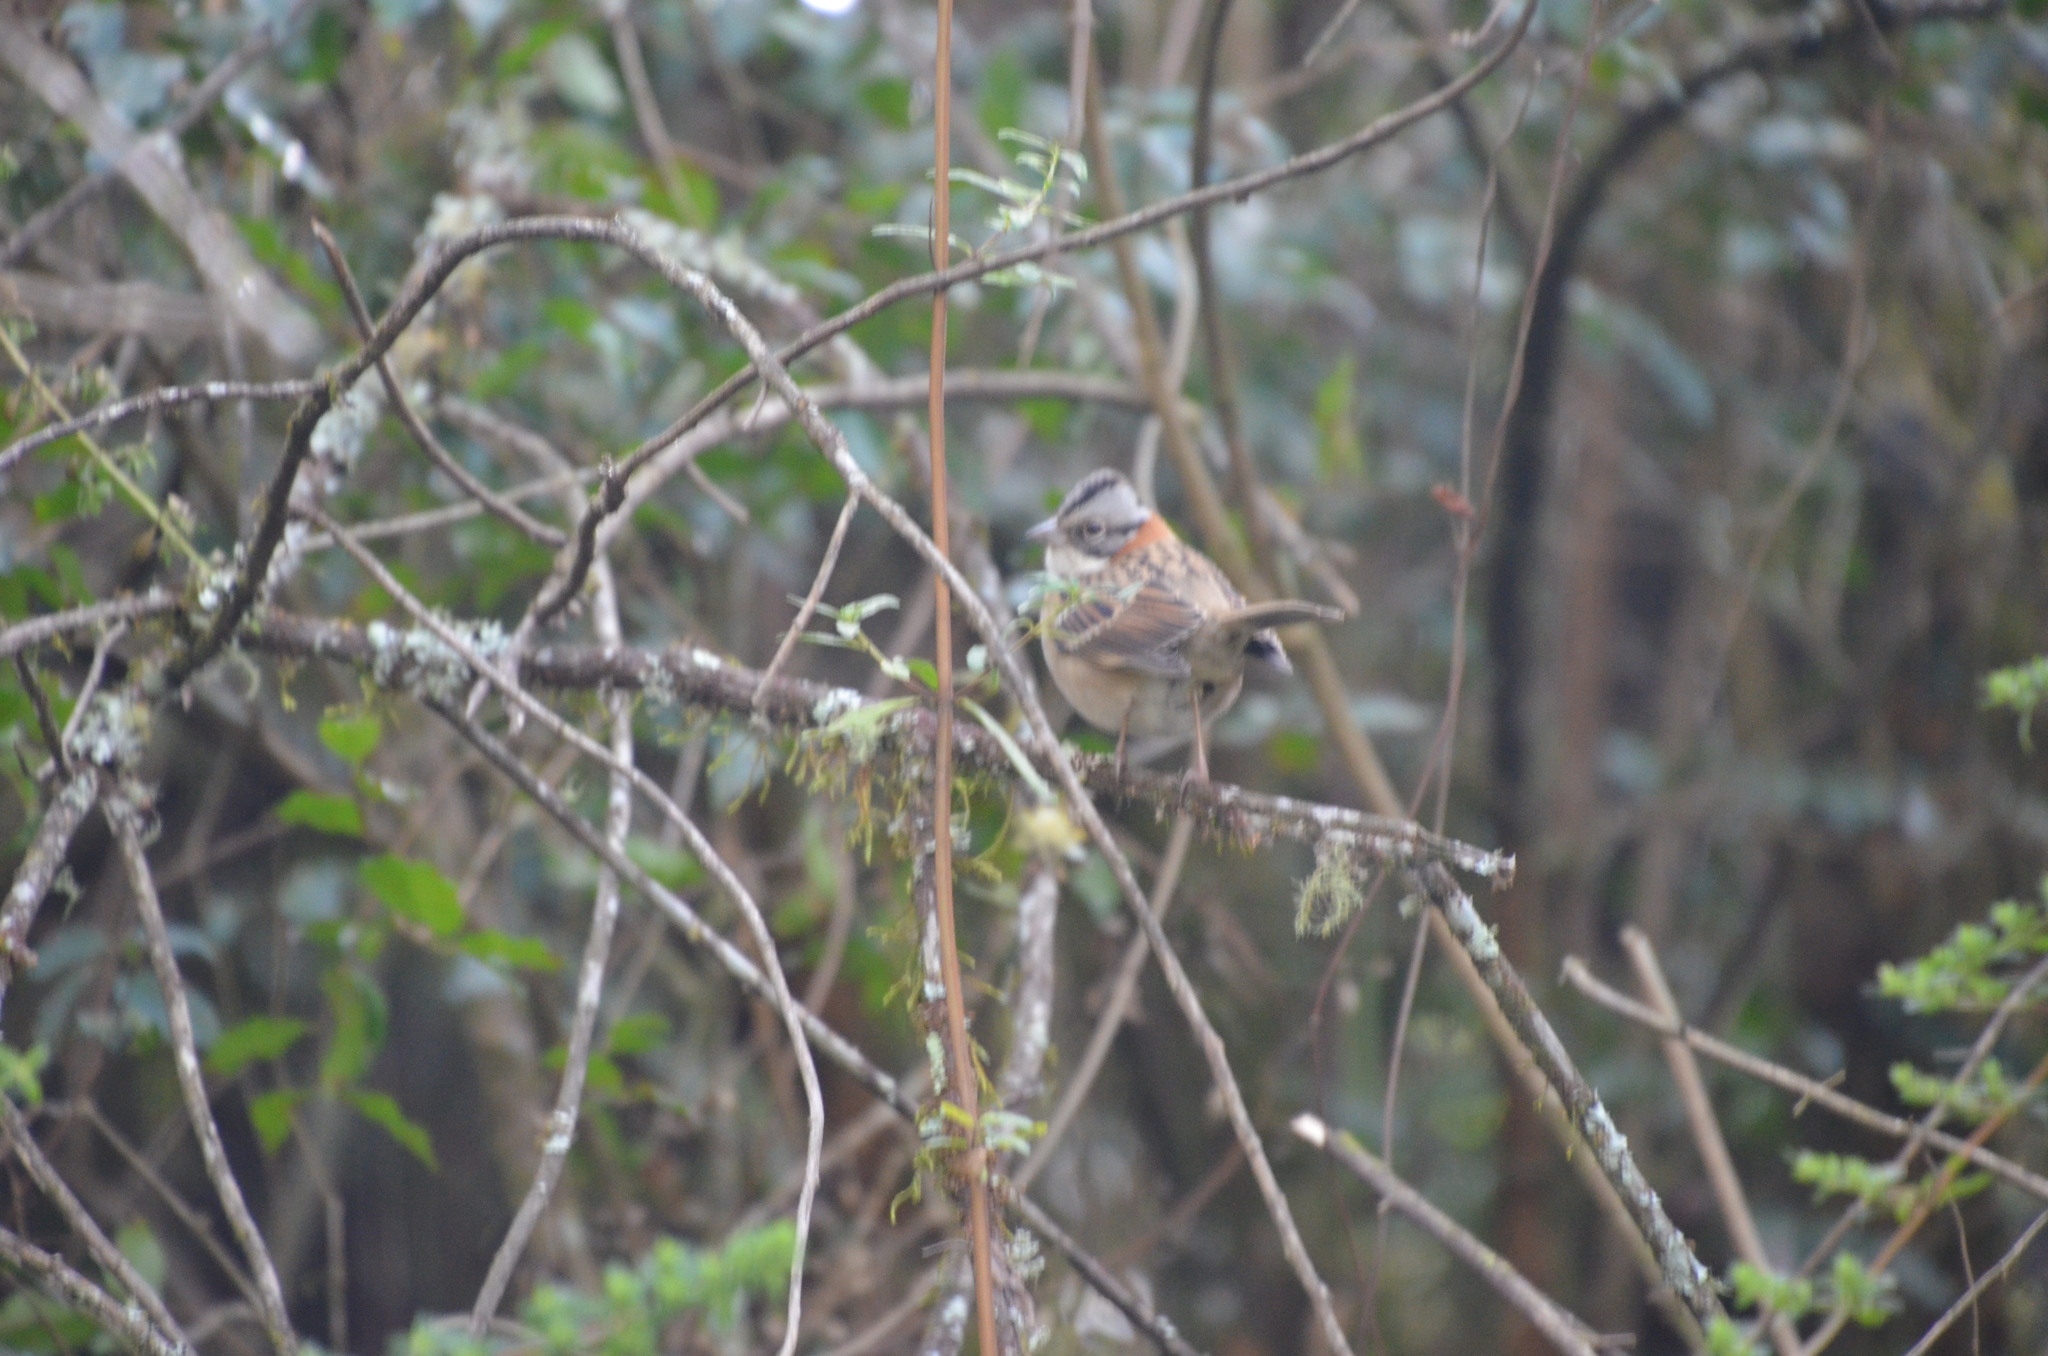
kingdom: Animalia
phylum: Chordata
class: Aves
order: Passeriformes
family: Passerellidae
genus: Zonotrichia
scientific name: Zonotrichia capensis
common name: Rufous-collared sparrow
